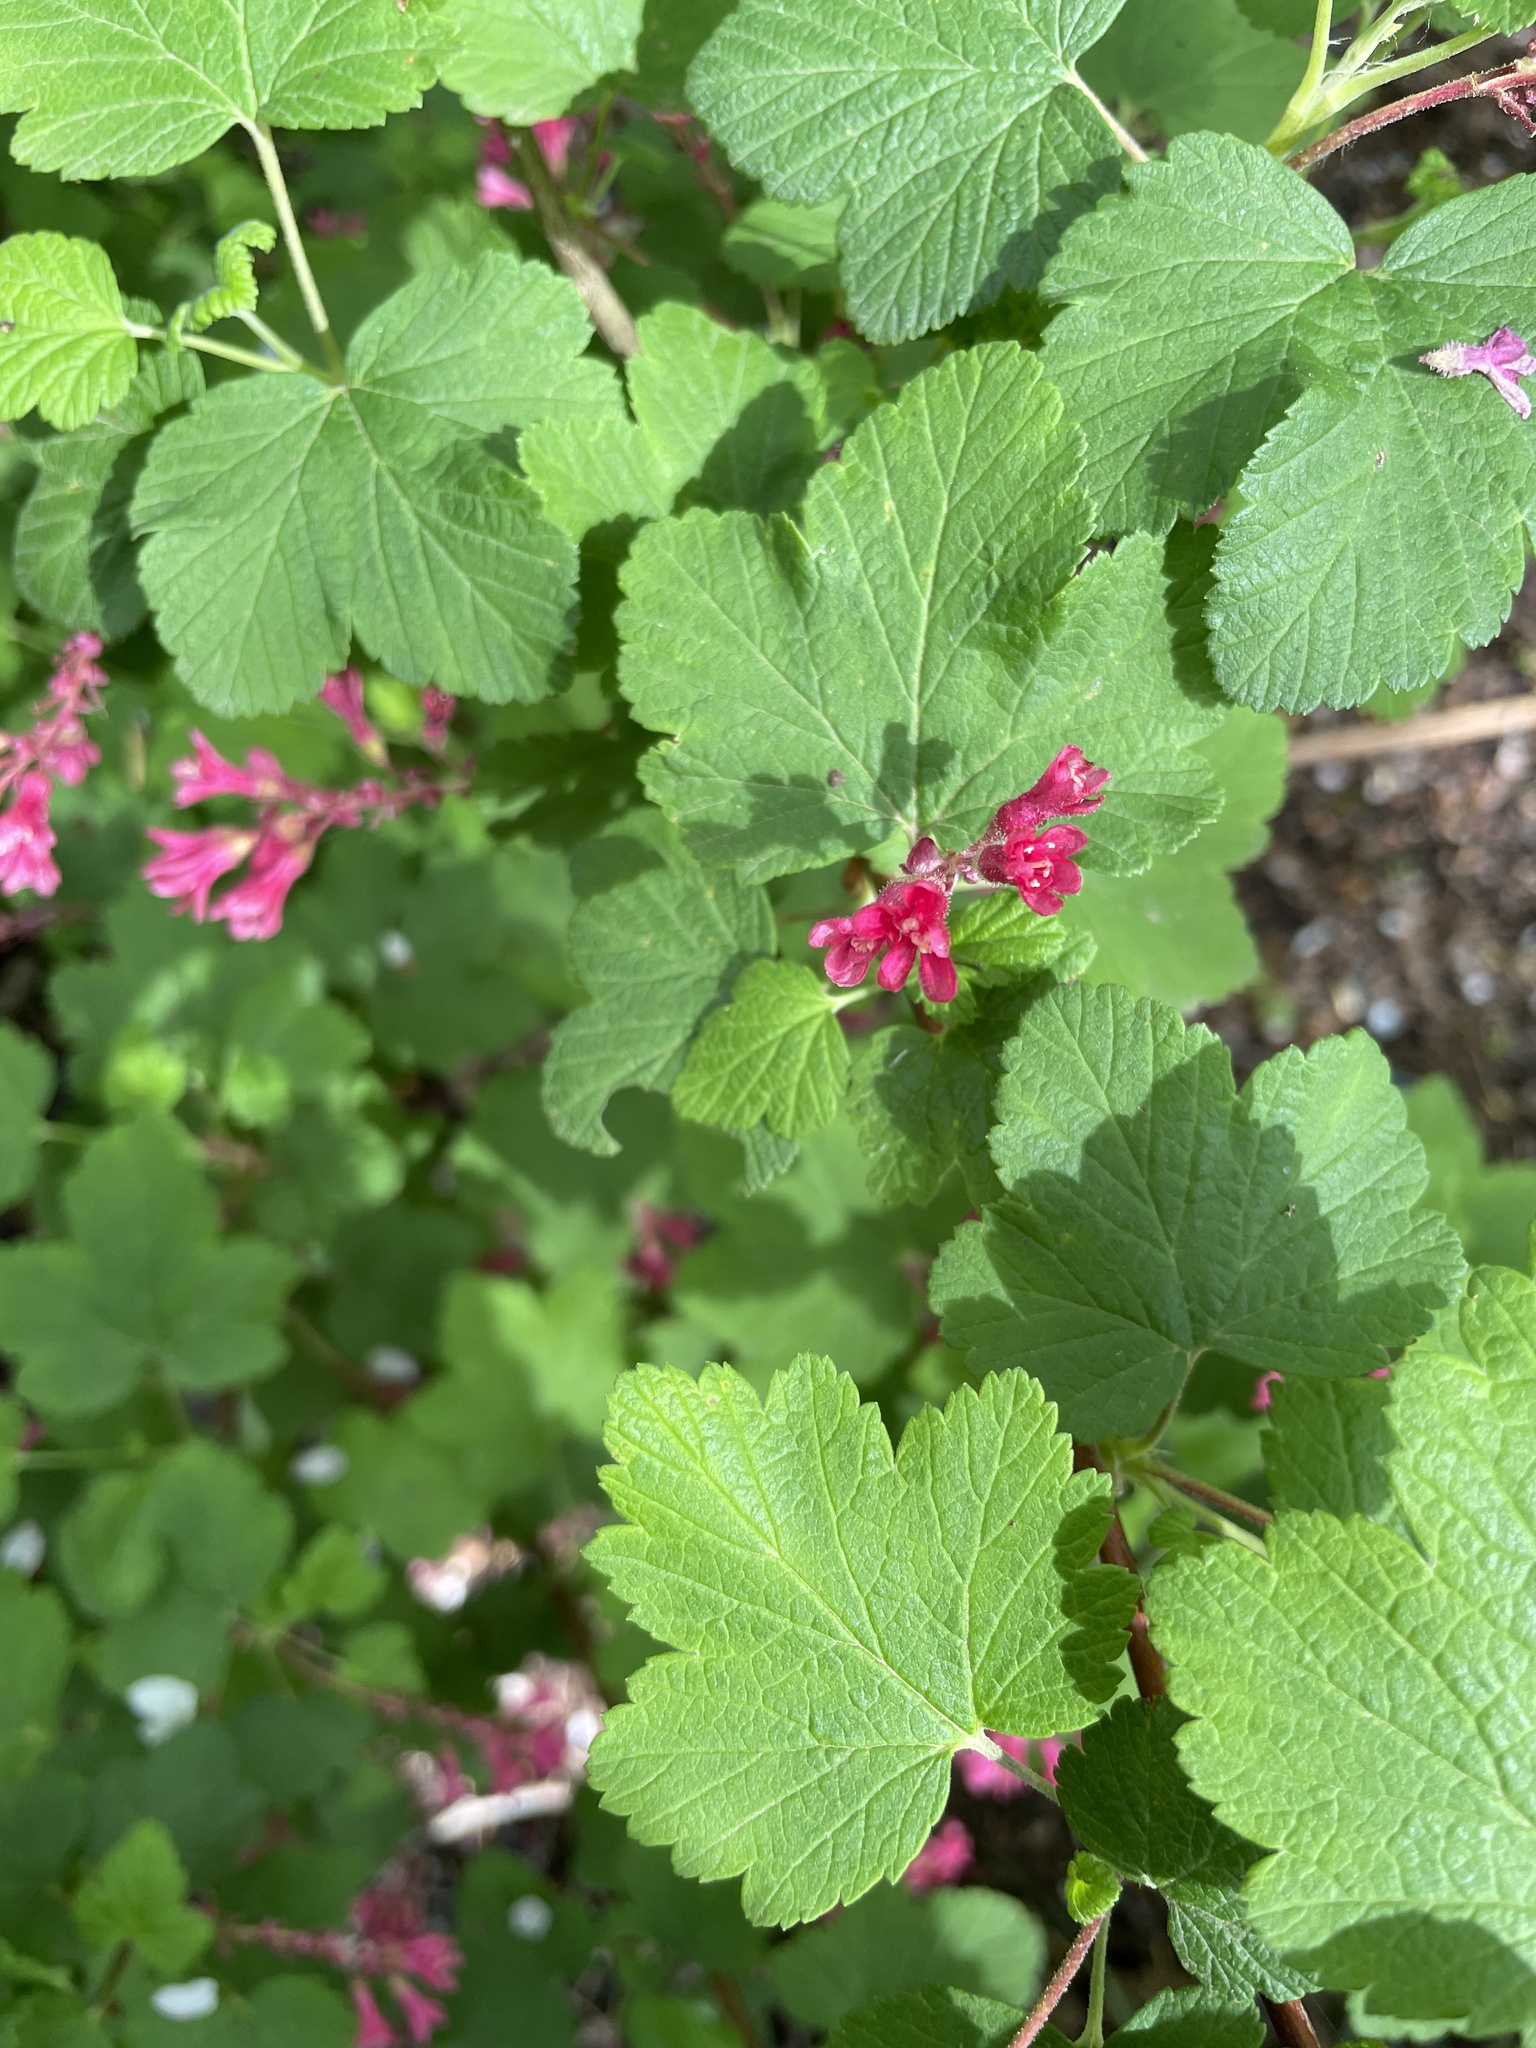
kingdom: Plantae
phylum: Tracheophyta
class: Magnoliopsida
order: Saxifragales
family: Grossulariaceae
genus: Ribes
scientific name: Ribes sanguineum
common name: Flowering currant
